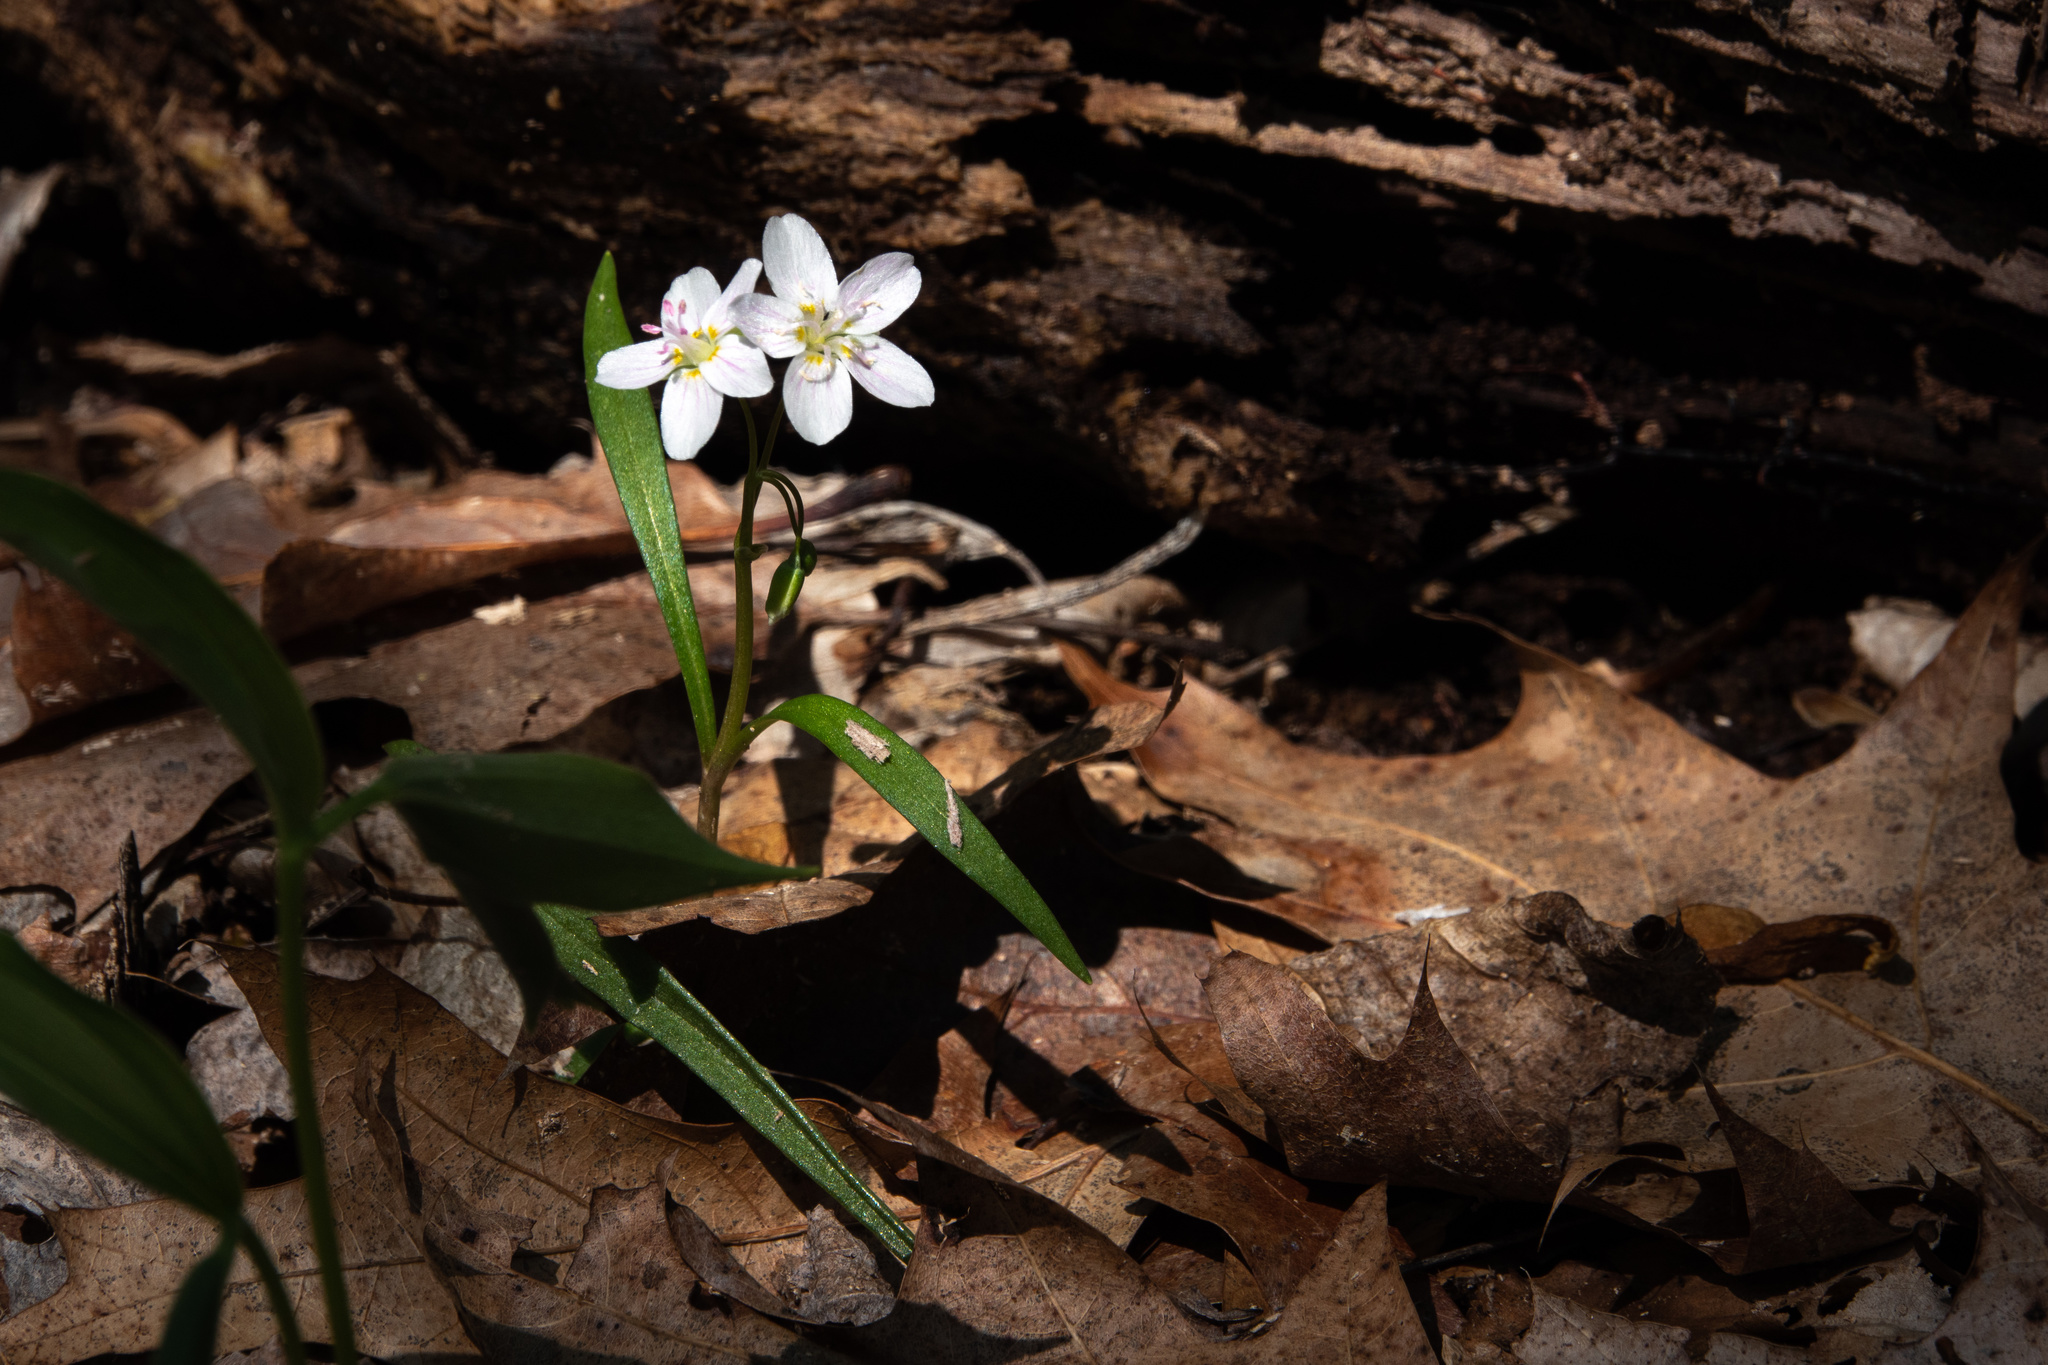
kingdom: Plantae
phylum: Tracheophyta
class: Magnoliopsida
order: Caryophyllales
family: Montiaceae
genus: Claytonia
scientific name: Claytonia virginica
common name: Virginia springbeauty
